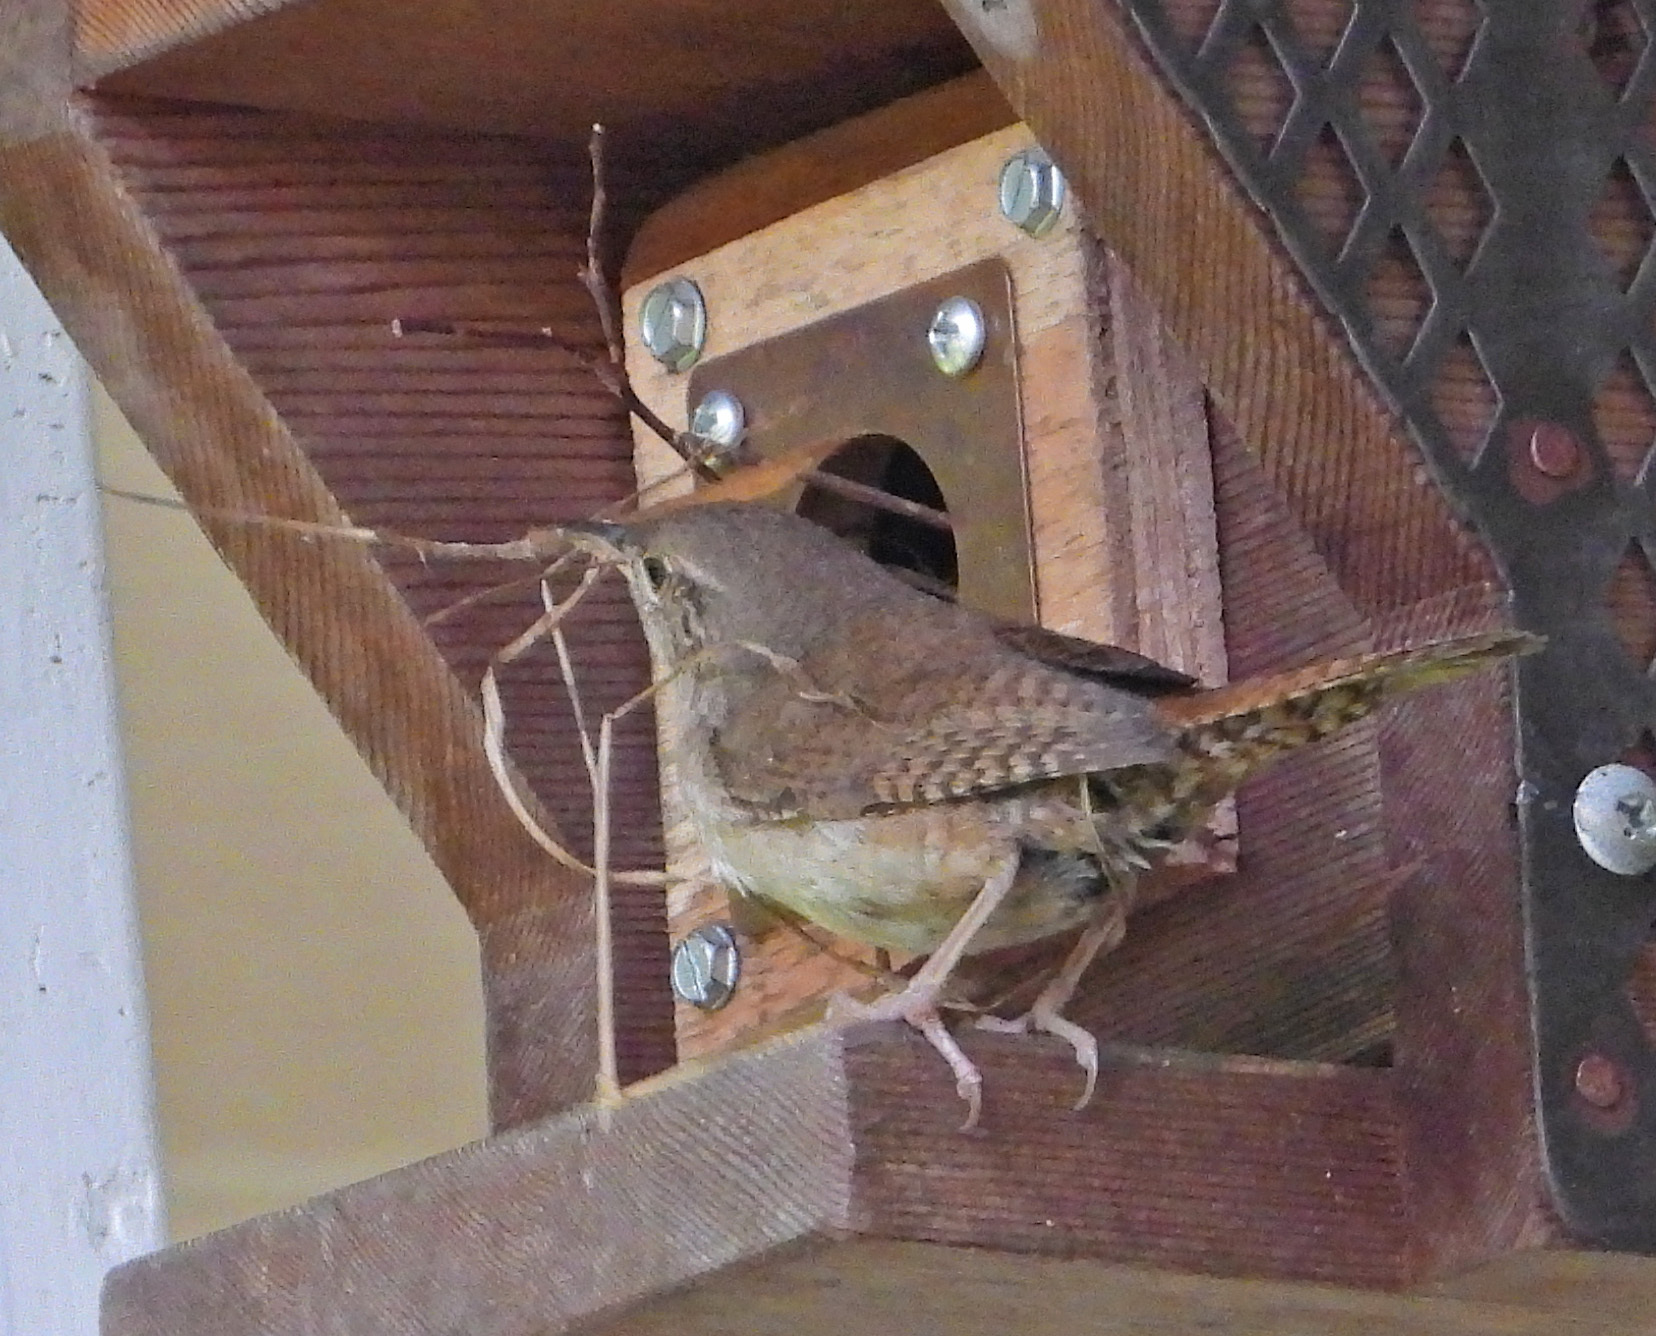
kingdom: Animalia
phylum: Chordata
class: Aves
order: Passeriformes
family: Troglodytidae
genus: Troglodytes
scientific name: Troglodytes aedon
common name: House wren
